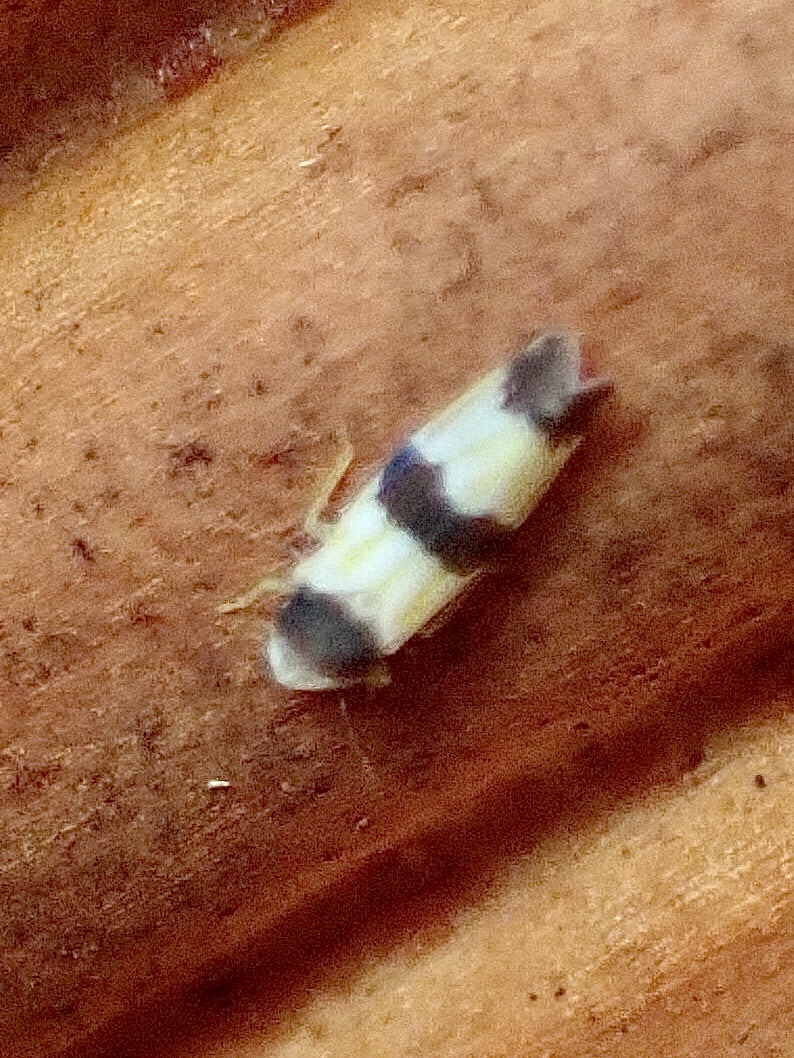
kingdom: Animalia
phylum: Arthropoda
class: Insecta
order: Hemiptera
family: Cicadellidae
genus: Erythroneura
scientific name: Erythroneura tricincta
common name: The threebanded grape leafhopper
